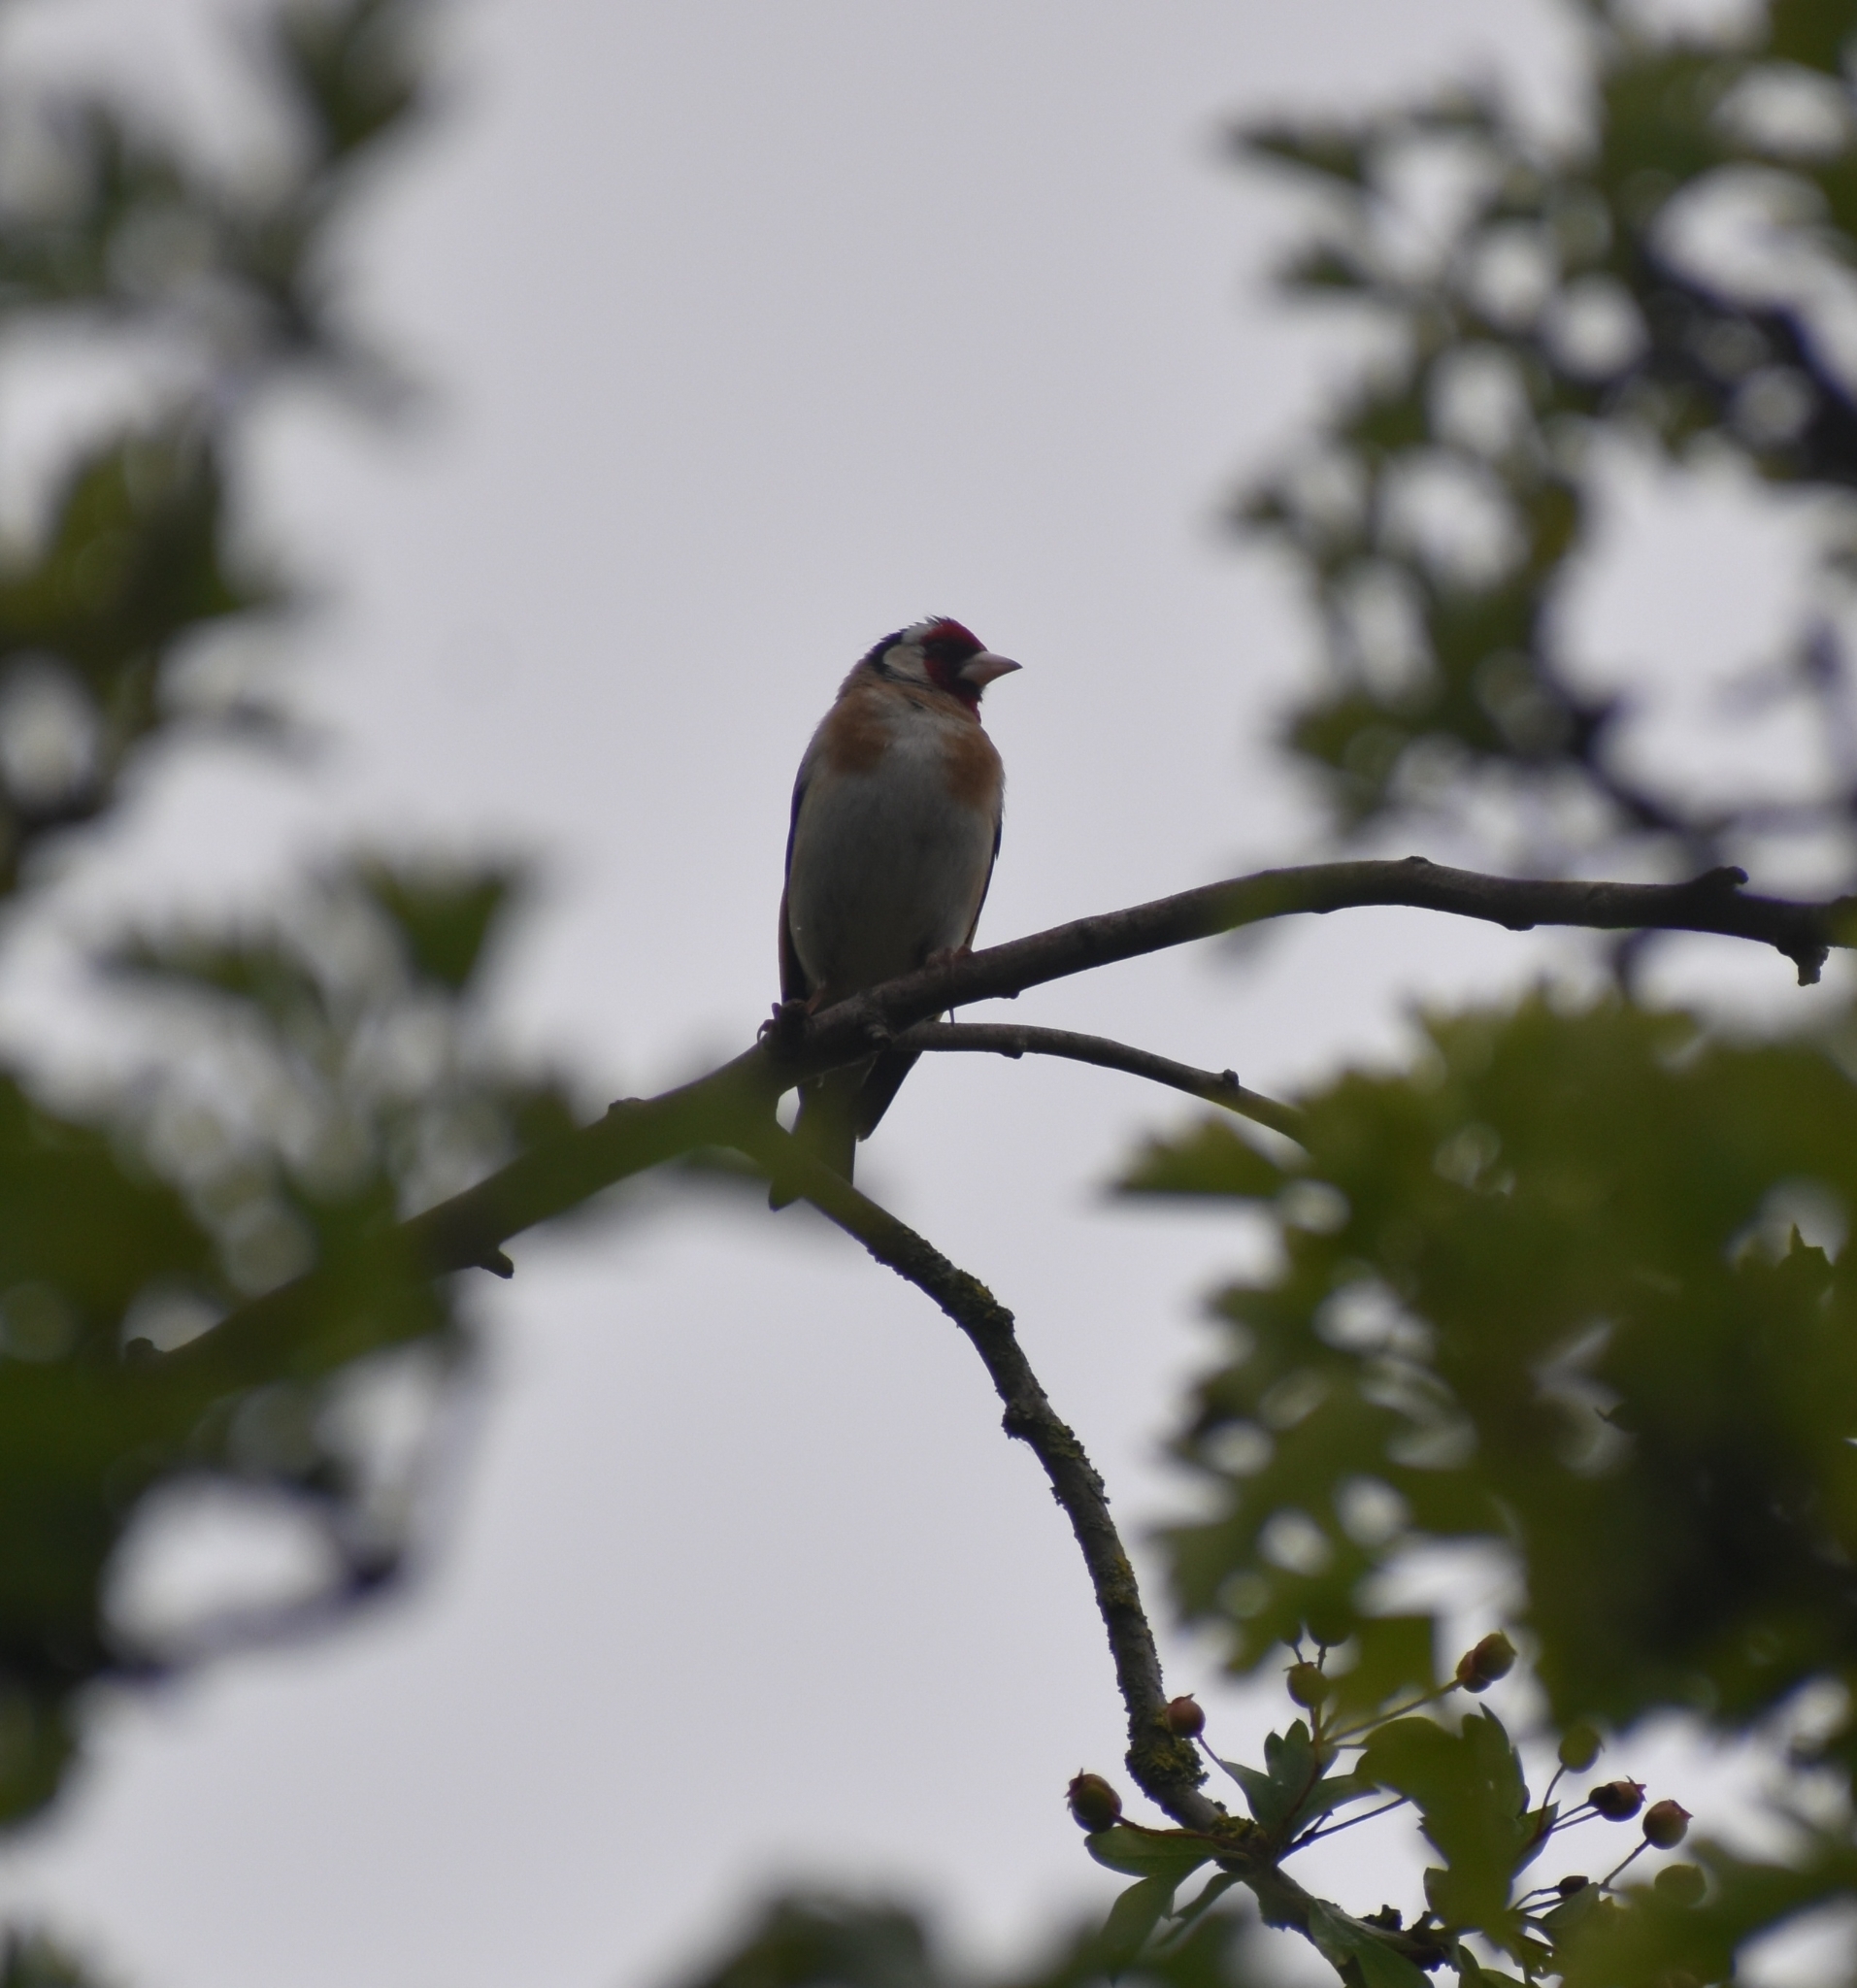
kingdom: Animalia
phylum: Chordata
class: Aves
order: Passeriformes
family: Fringillidae
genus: Carduelis
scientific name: Carduelis carduelis
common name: European goldfinch
